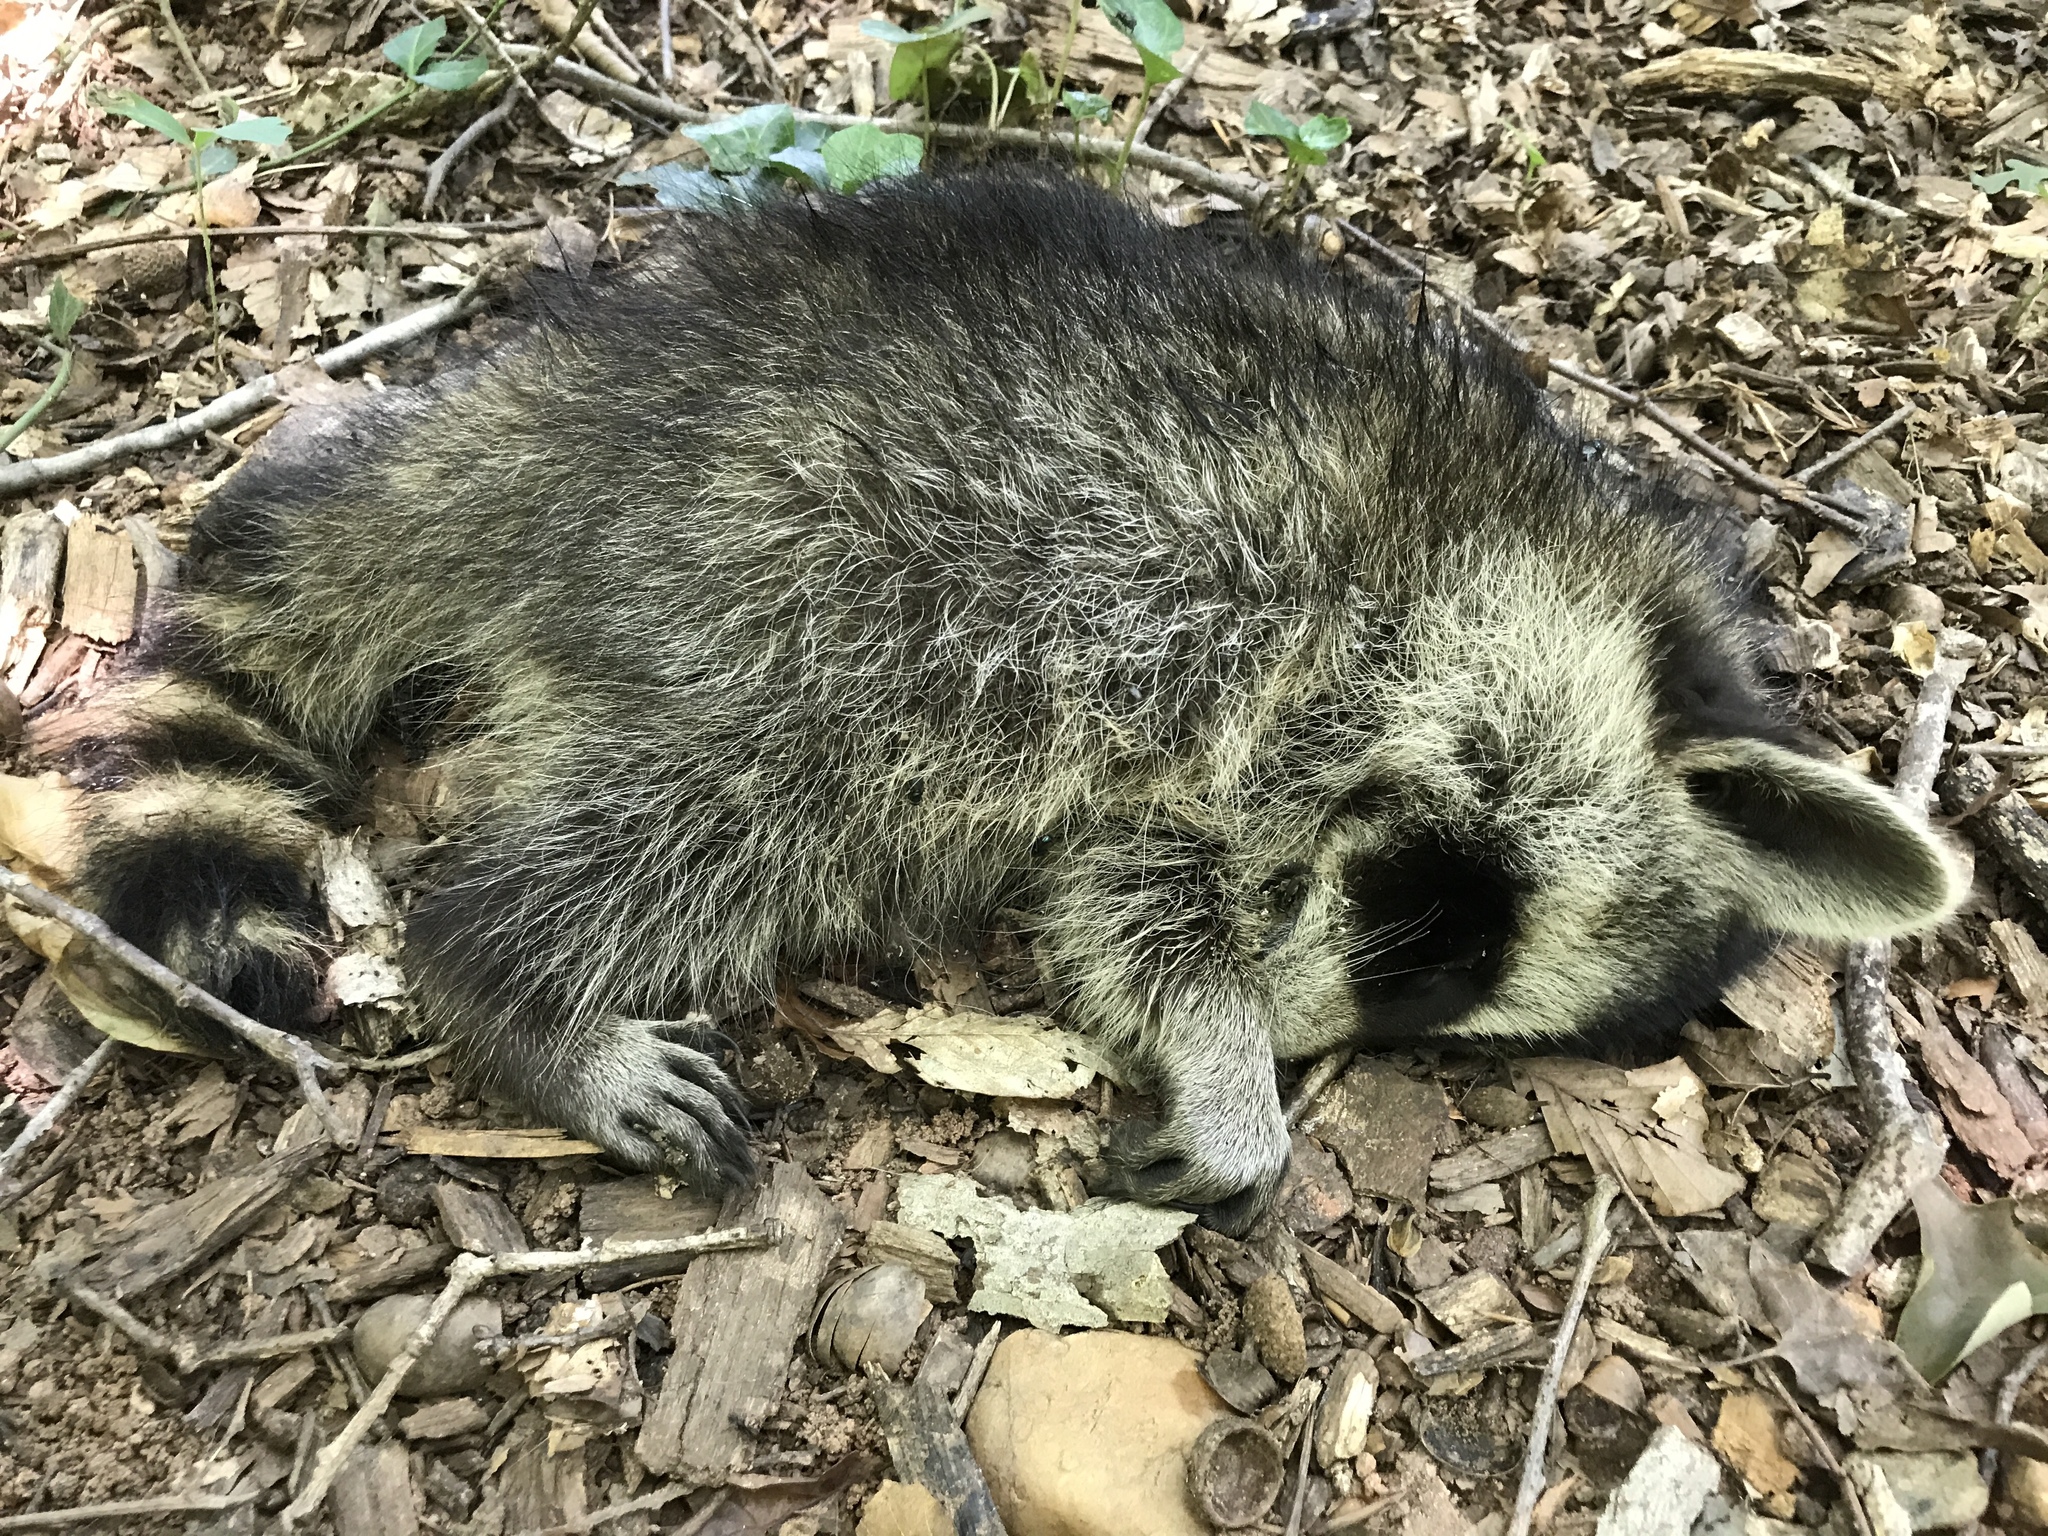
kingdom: Animalia
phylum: Chordata
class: Mammalia
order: Carnivora
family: Procyonidae
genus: Procyon
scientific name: Procyon lotor
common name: Raccoon
